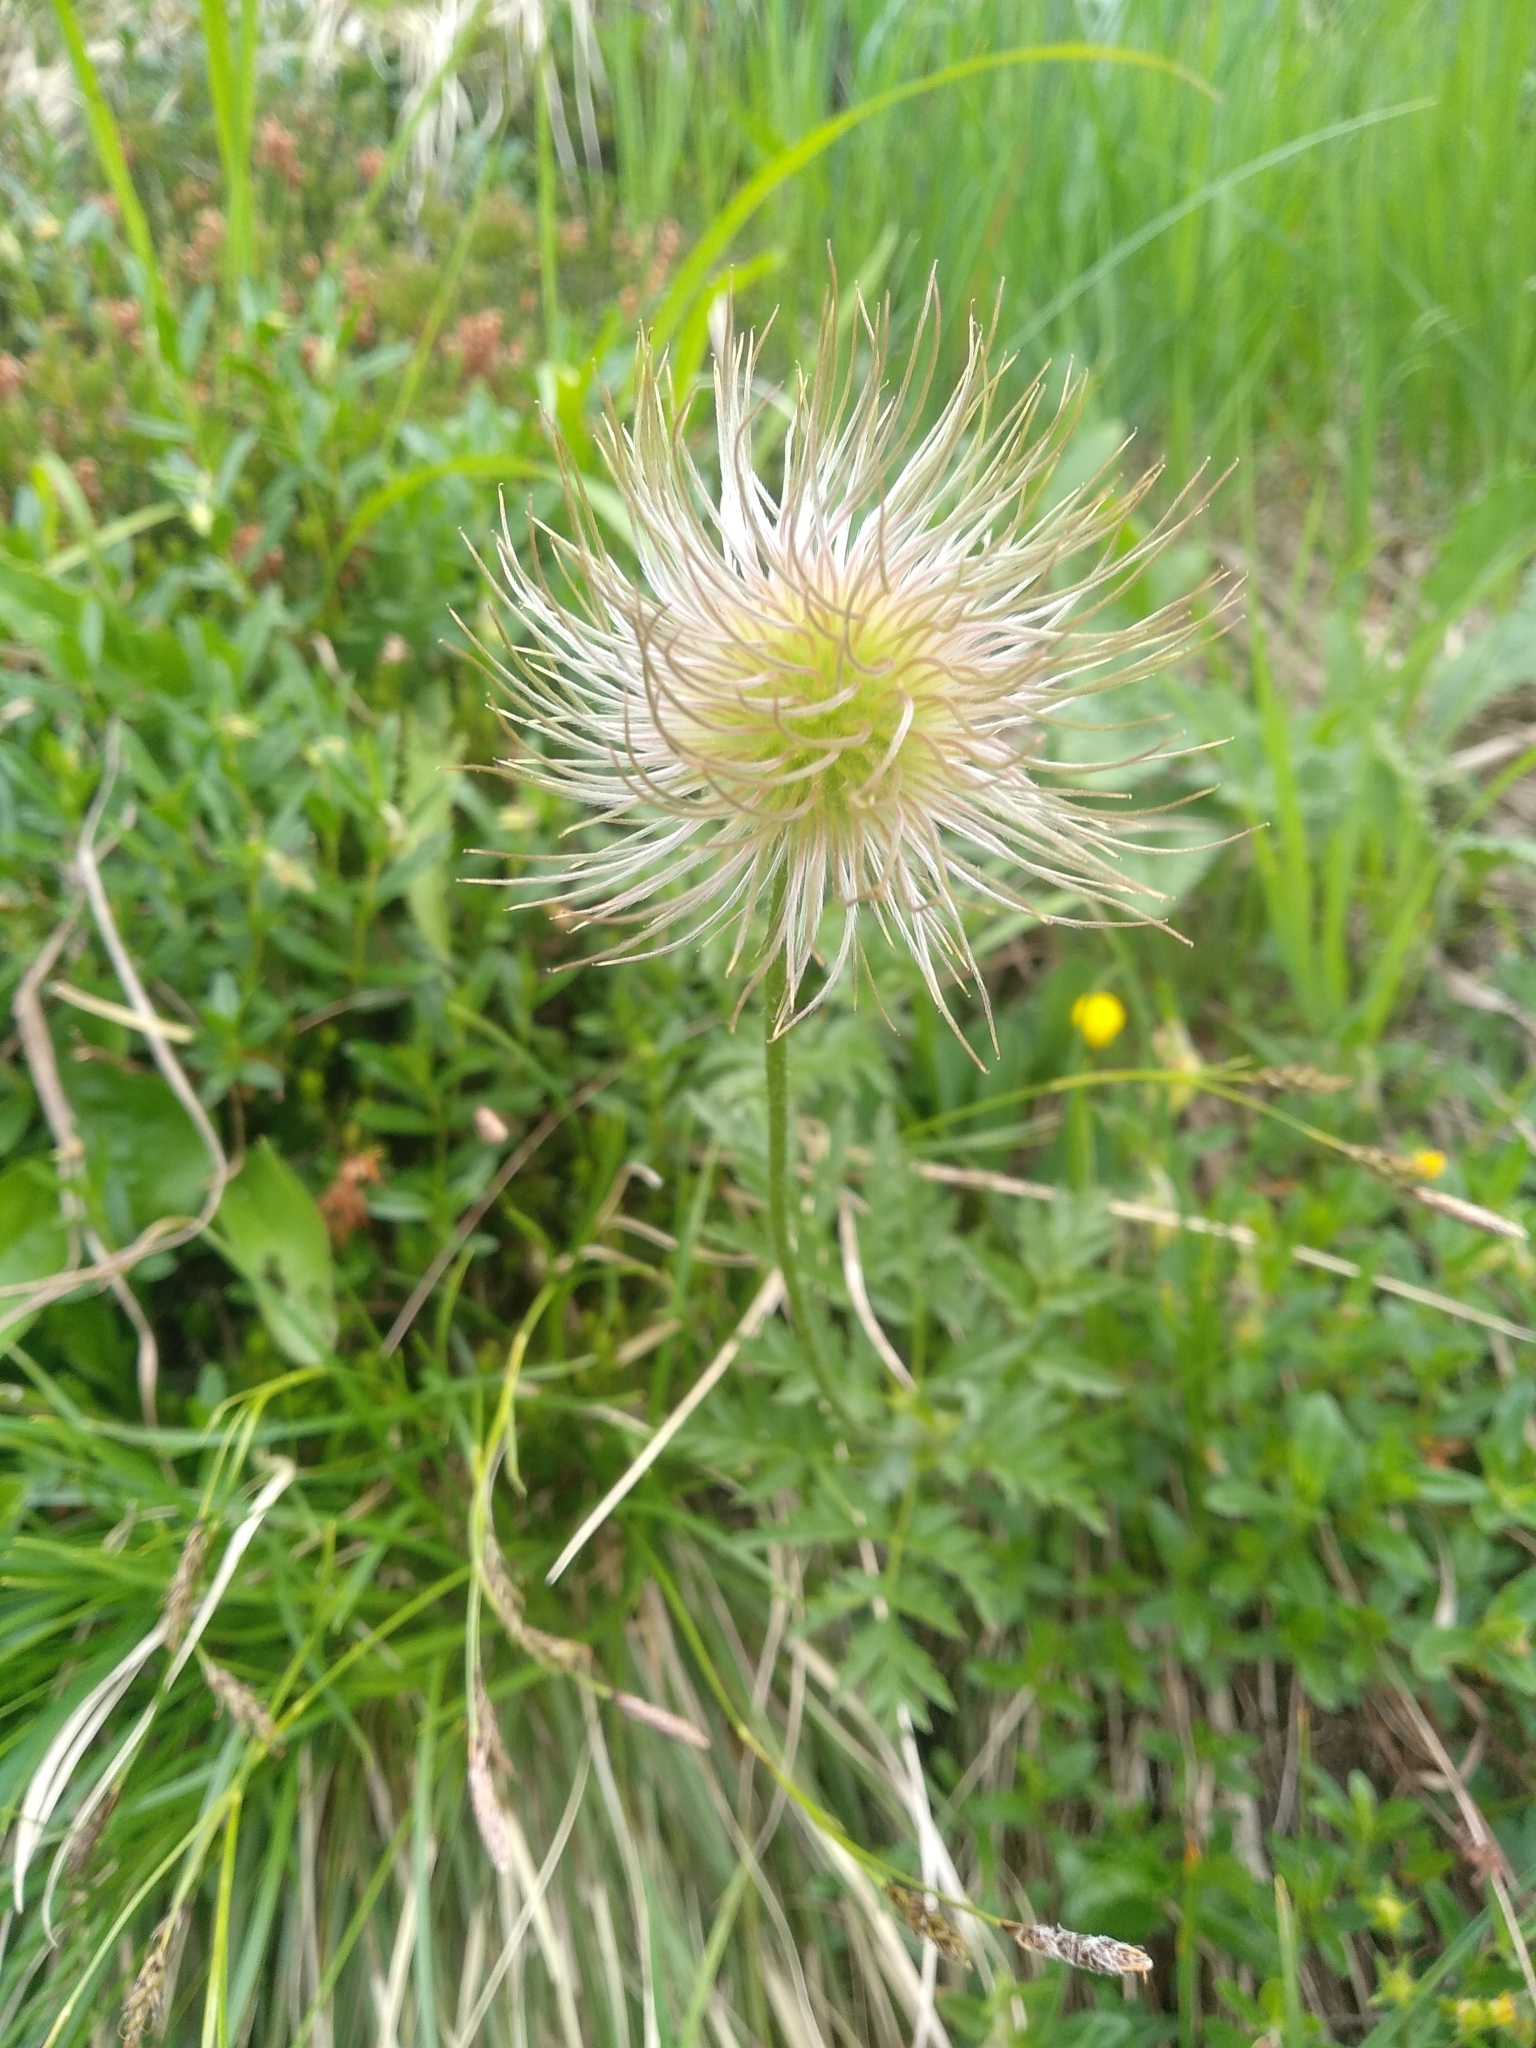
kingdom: Plantae
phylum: Tracheophyta
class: Magnoliopsida
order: Ranunculales
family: Ranunculaceae
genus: Pulsatilla
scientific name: Pulsatilla alpina
